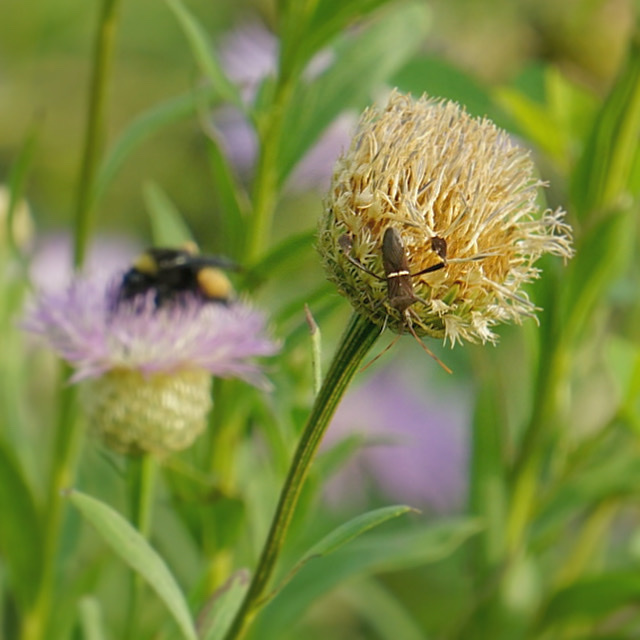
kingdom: Animalia
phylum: Arthropoda
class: Insecta
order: Hemiptera
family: Coreidae
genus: Leptoglossus
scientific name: Leptoglossus phyllopus
